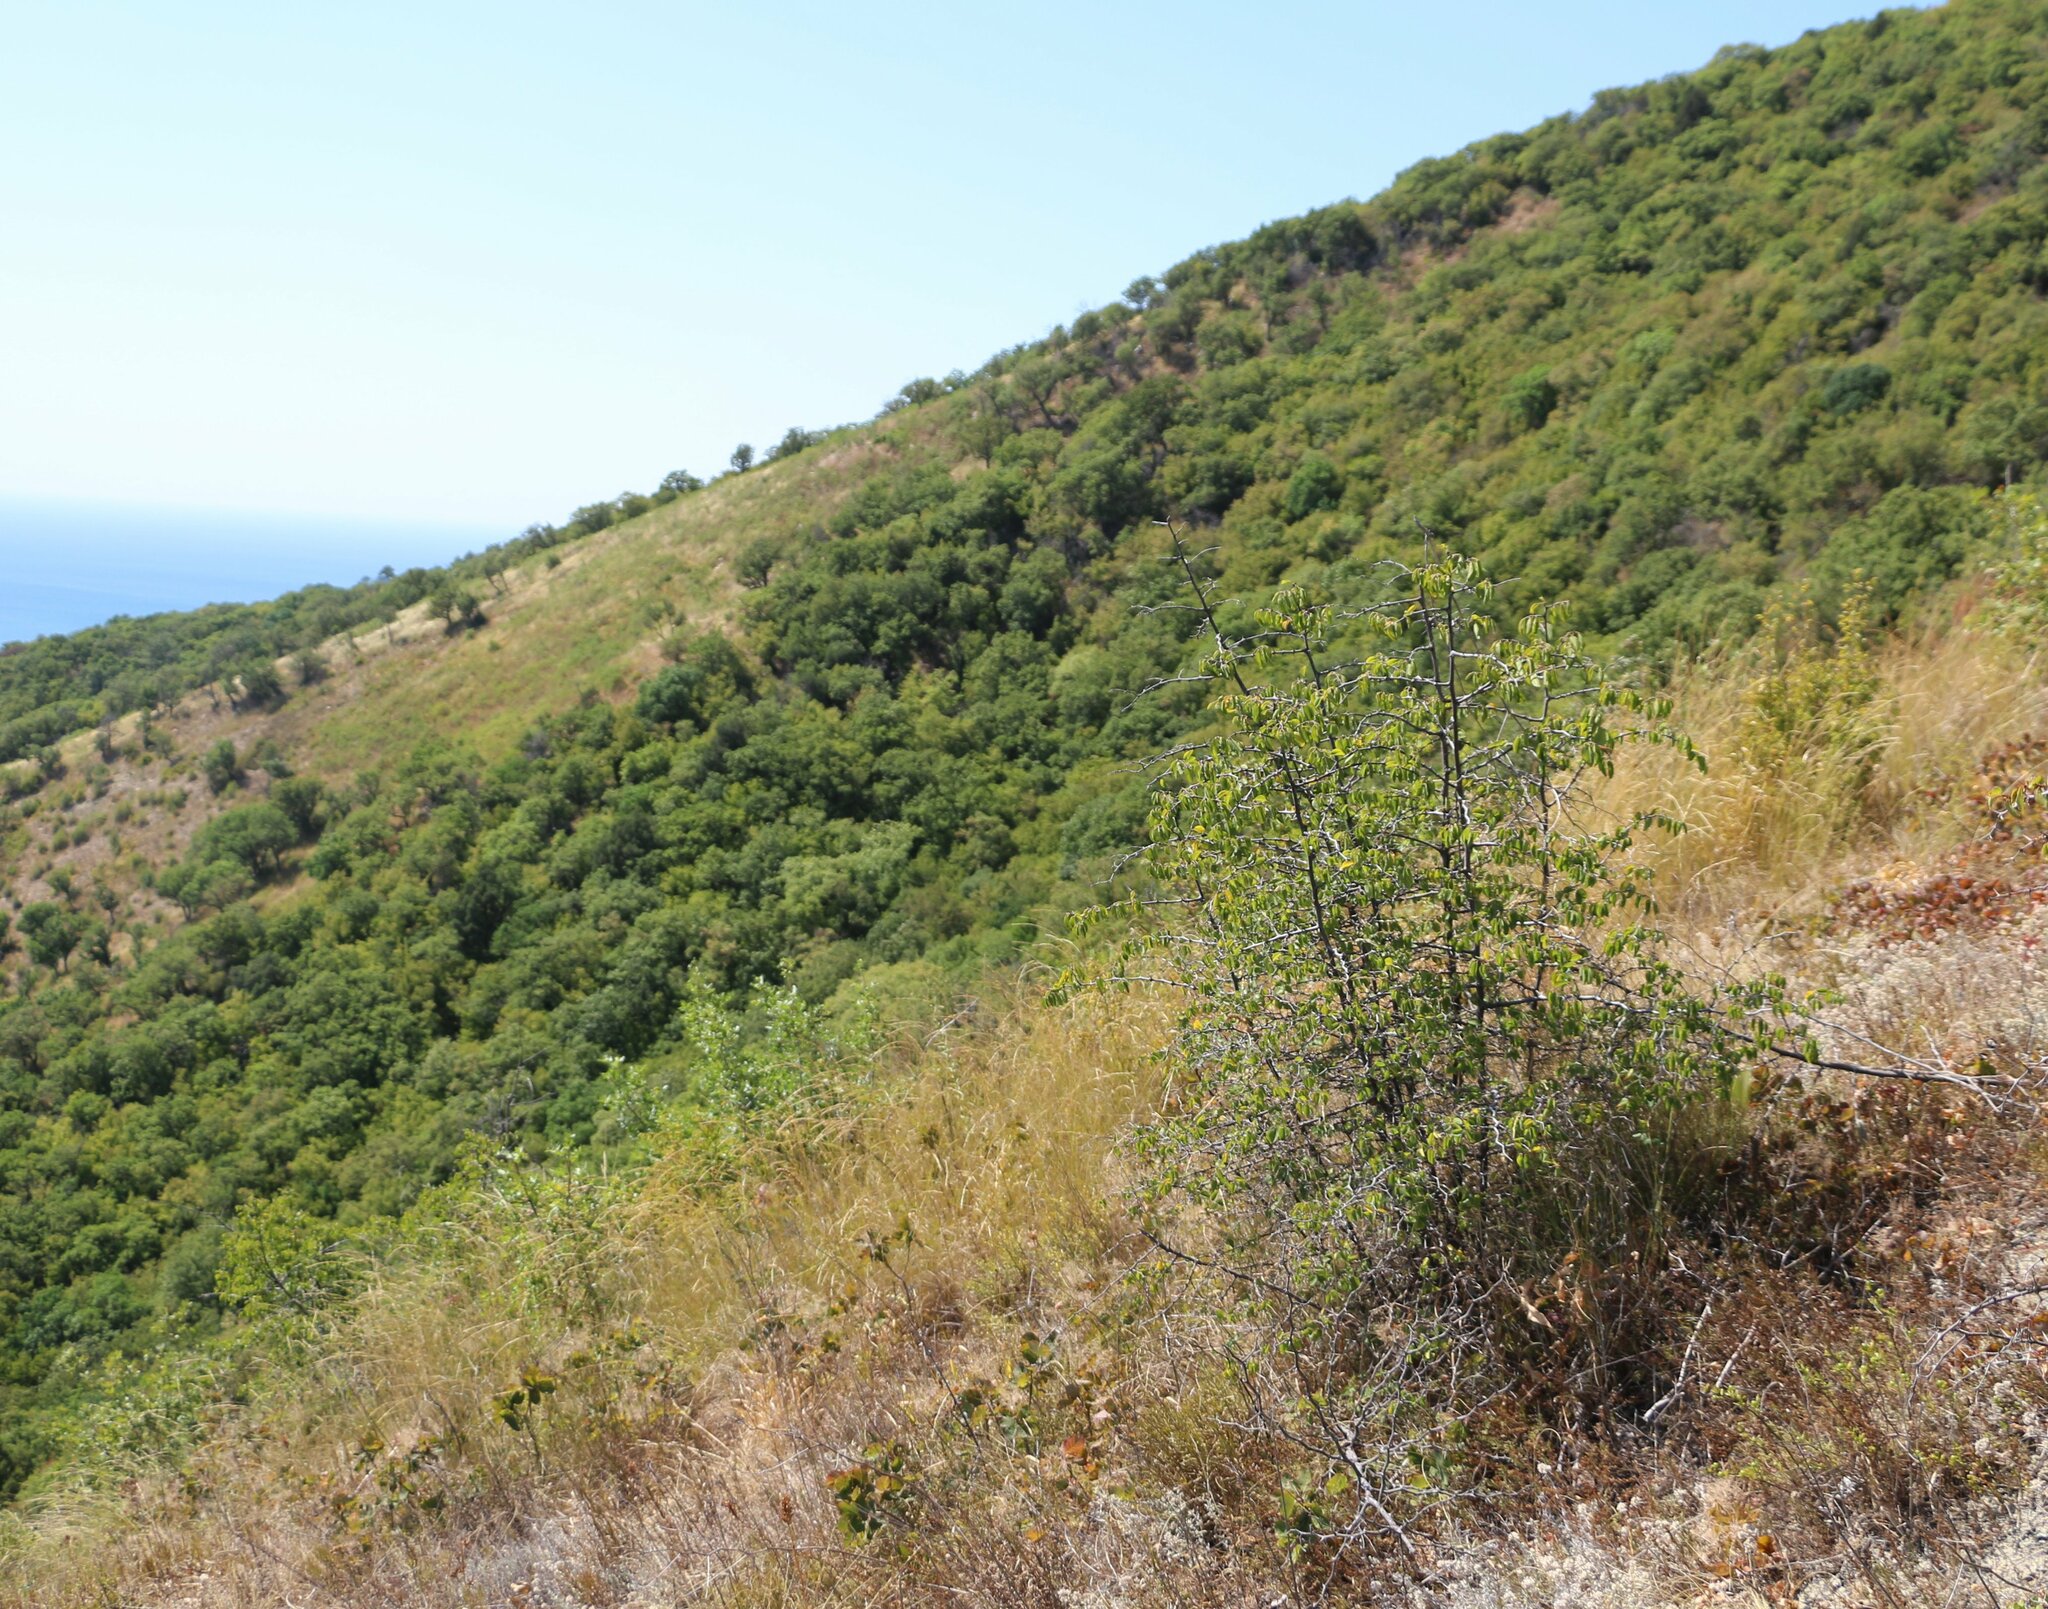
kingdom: Plantae
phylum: Tracheophyta
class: Magnoliopsida
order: Rosales
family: Rhamnaceae
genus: Paliurus
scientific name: Paliurus spina-christi
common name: Jeruselem thorn
